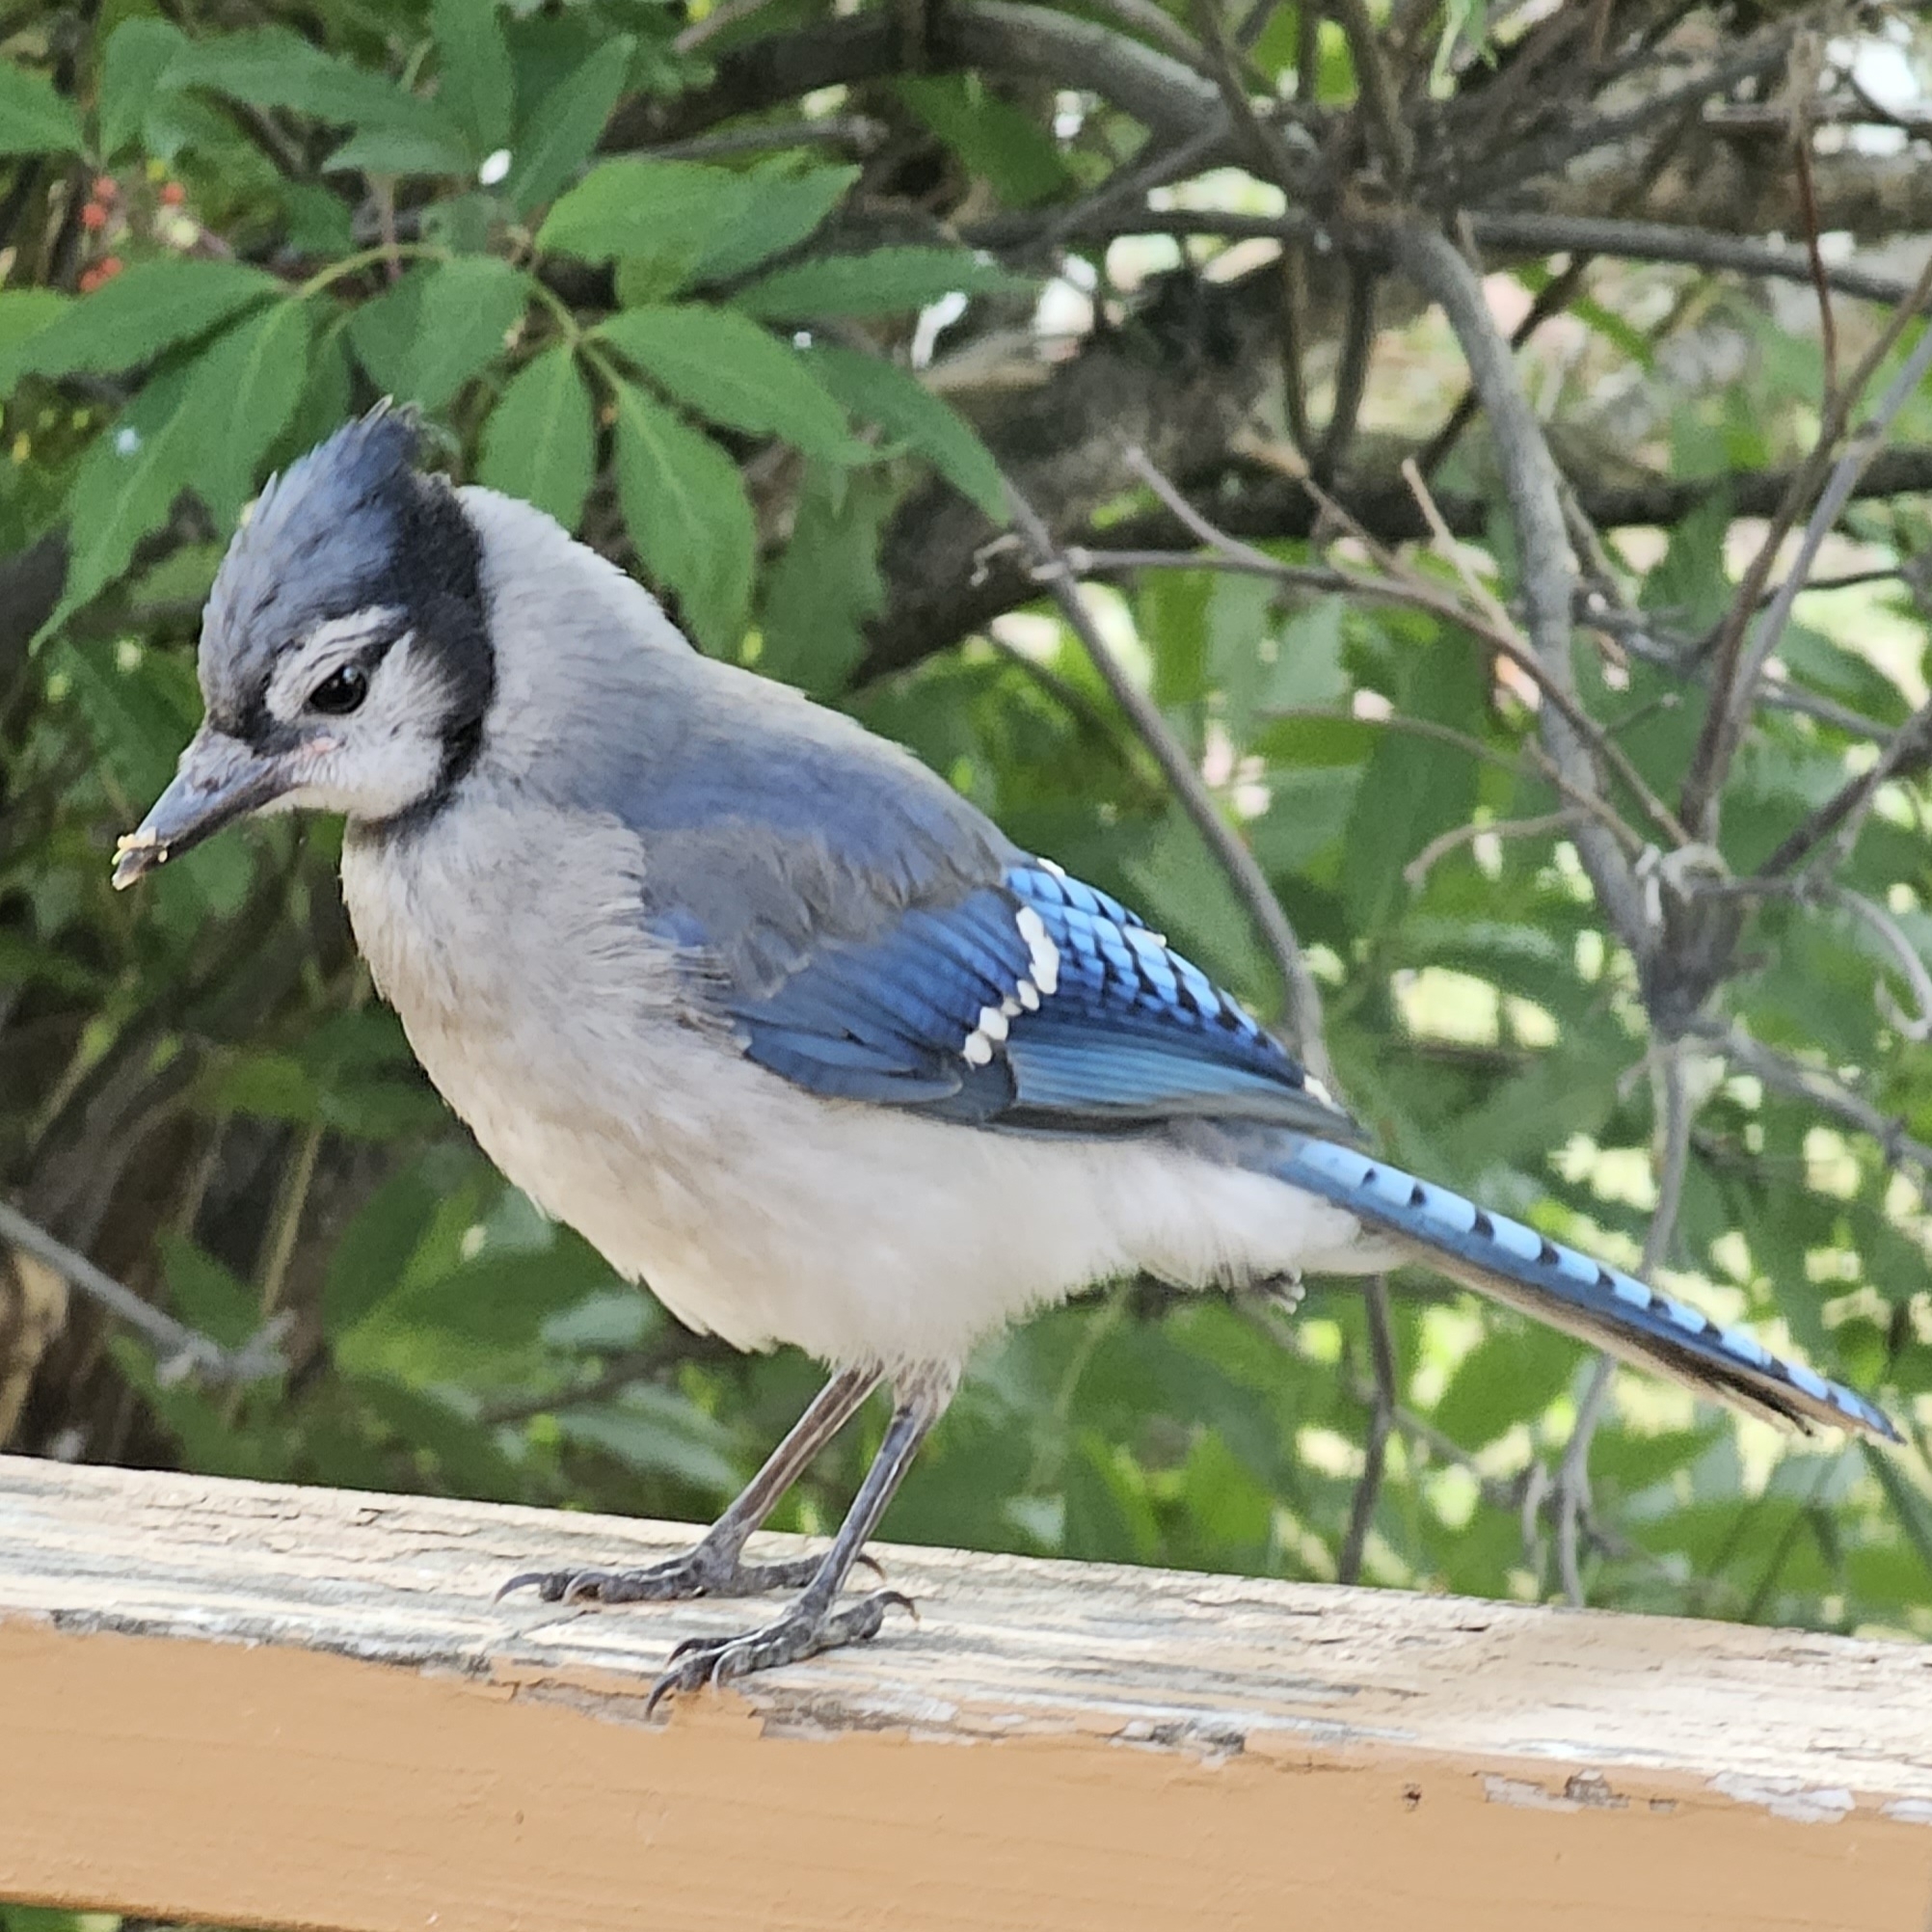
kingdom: Animalia
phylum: Chordata
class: Aves
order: Passeriformes
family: Corvidae
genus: Cyanocitta
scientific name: Cyanocitta cristata
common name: Blue jay
